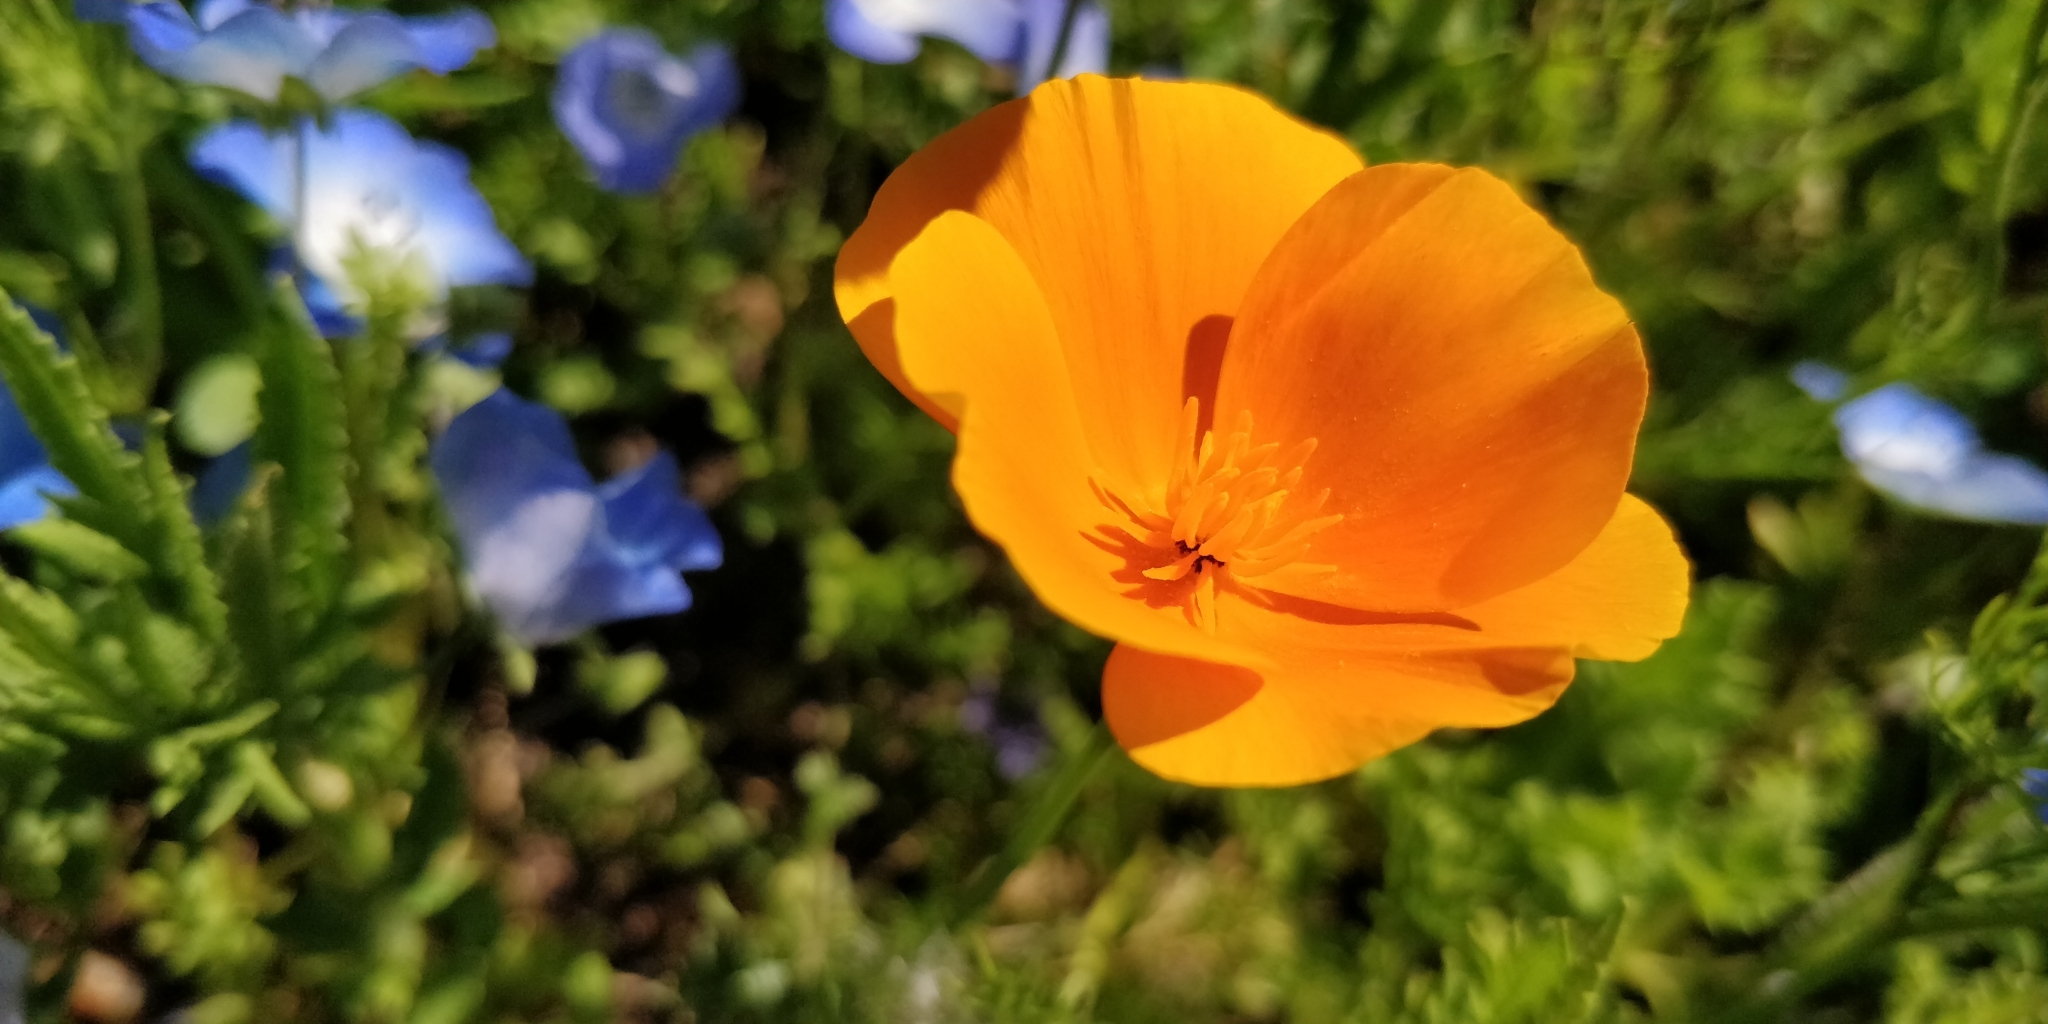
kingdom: Plantae
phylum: Tracheophyta
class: Magnoliopsida
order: Ranunculales
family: Papaveraceae
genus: Eschscholzia
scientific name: Eschscholzia californica
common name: California poppy
